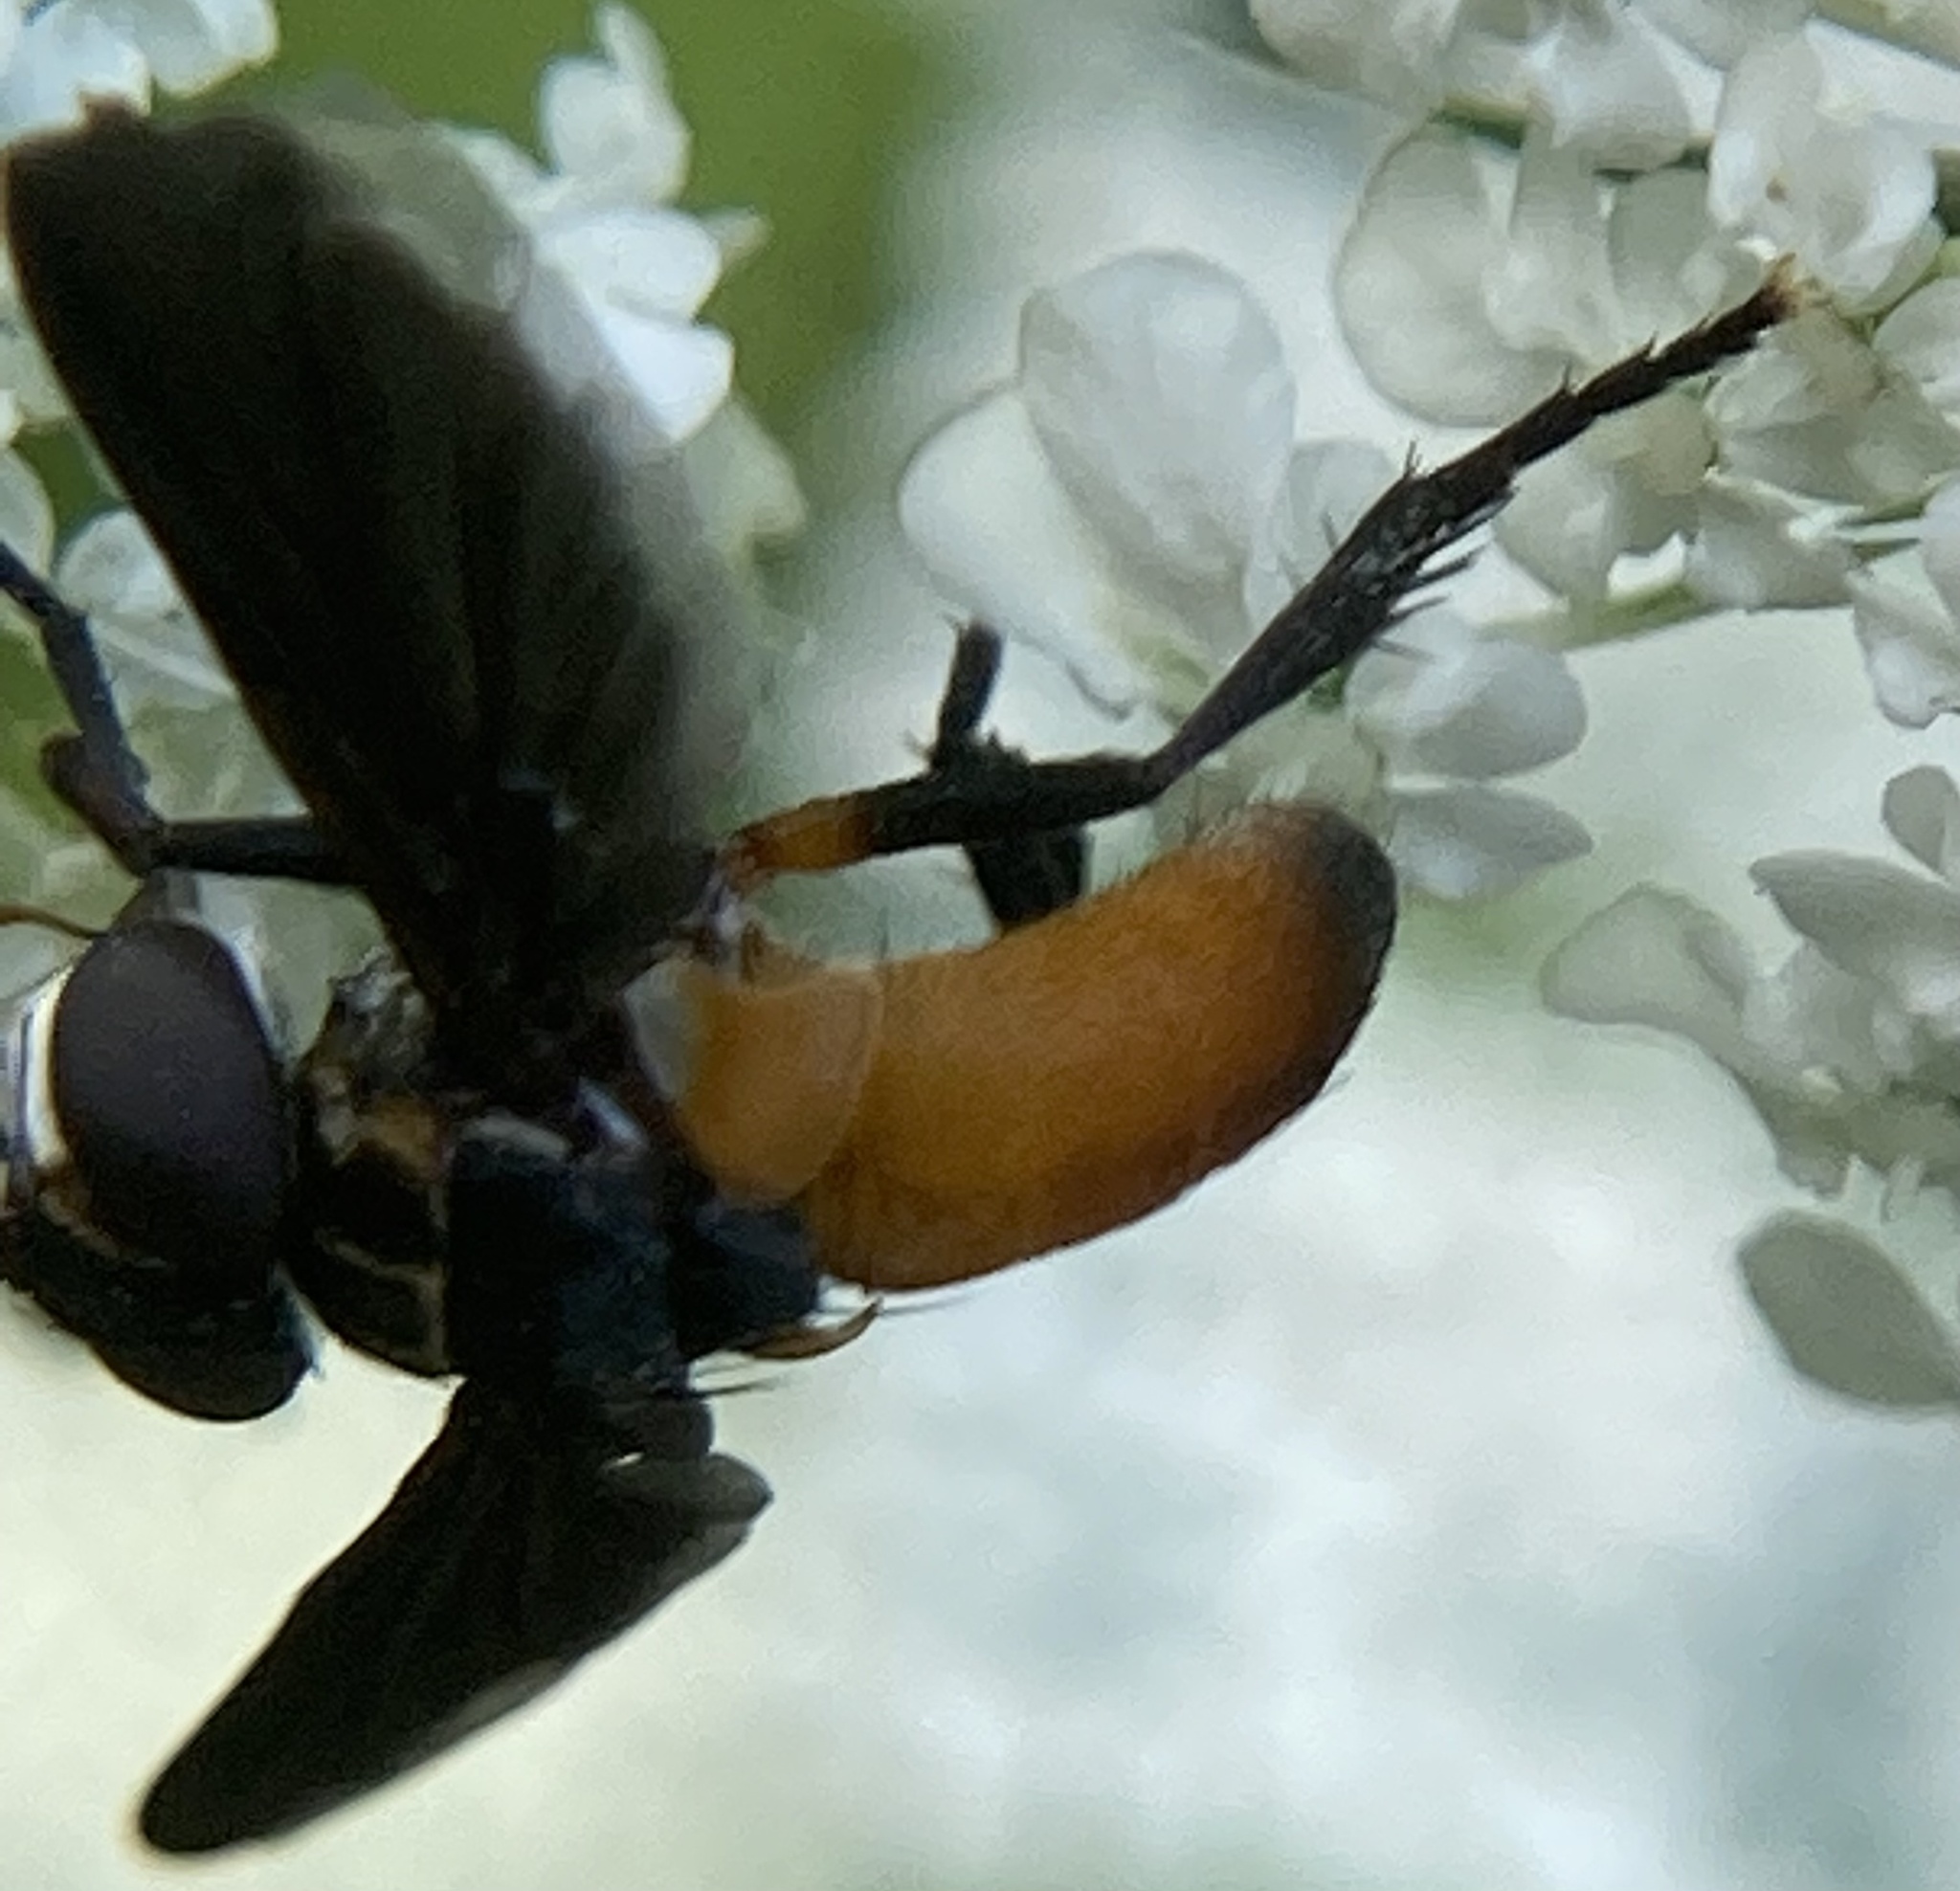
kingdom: Animalia
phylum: Arthropoda
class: Insecta
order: Diptera
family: Tachinidae
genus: Trichopoda
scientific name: Trichopoda pennipes
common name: Tachinid fly
